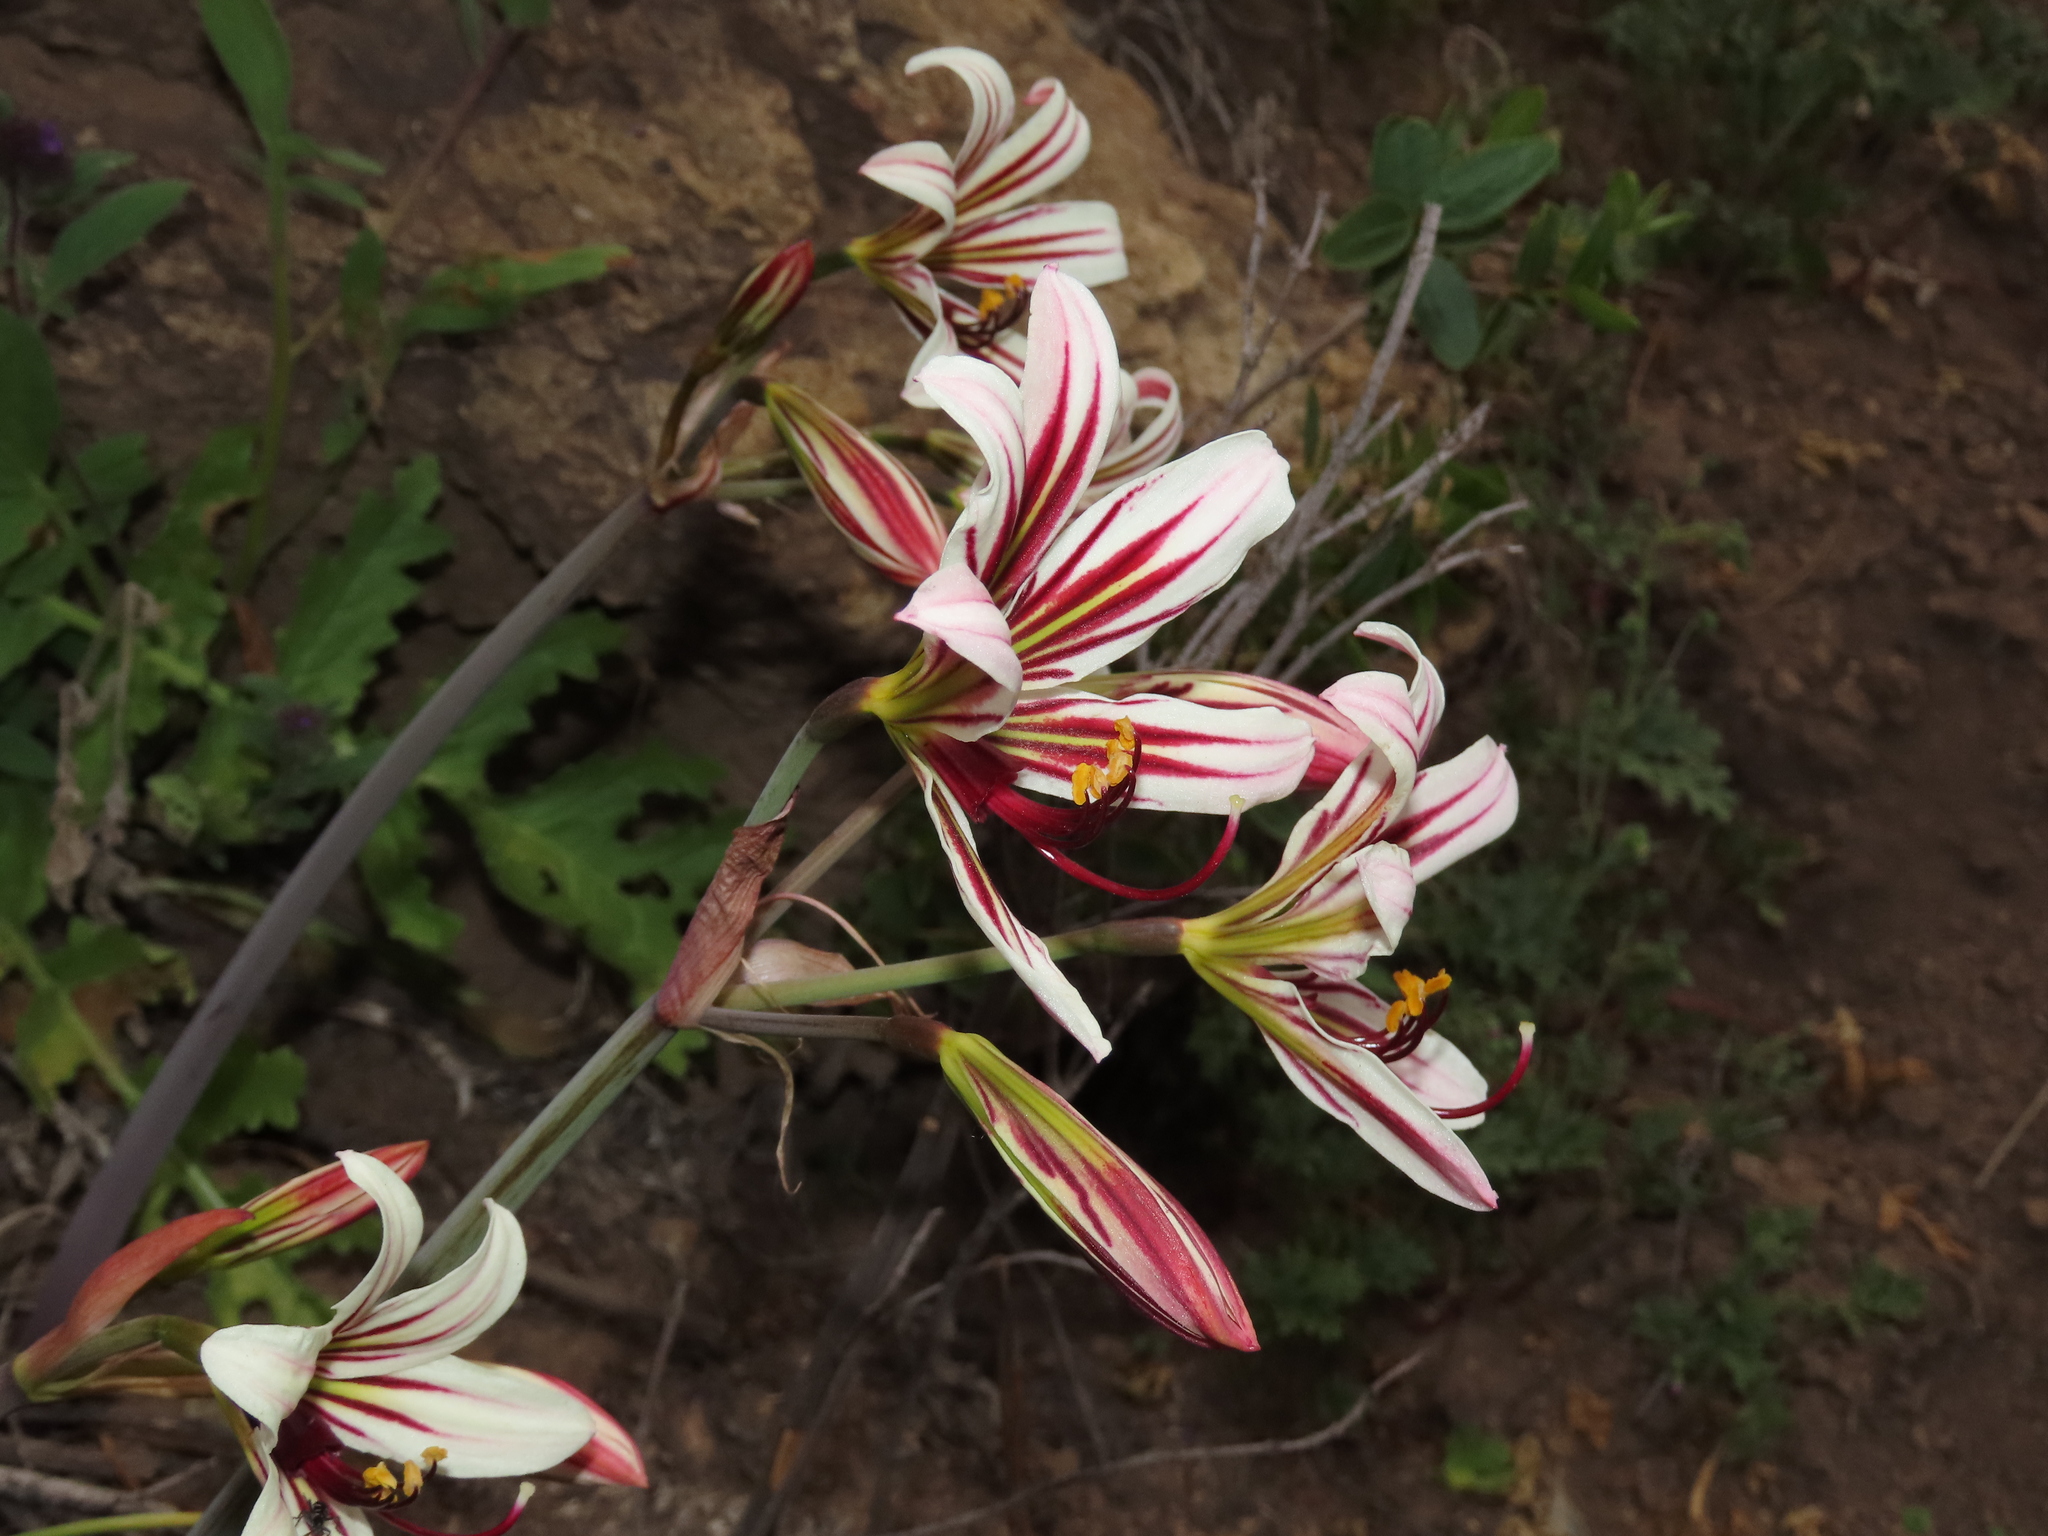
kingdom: Plantae
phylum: Tracheophyta
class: Liliopsida
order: Asparagales
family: Amaryllidaceae
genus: Phycella
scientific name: Phycella arzae
